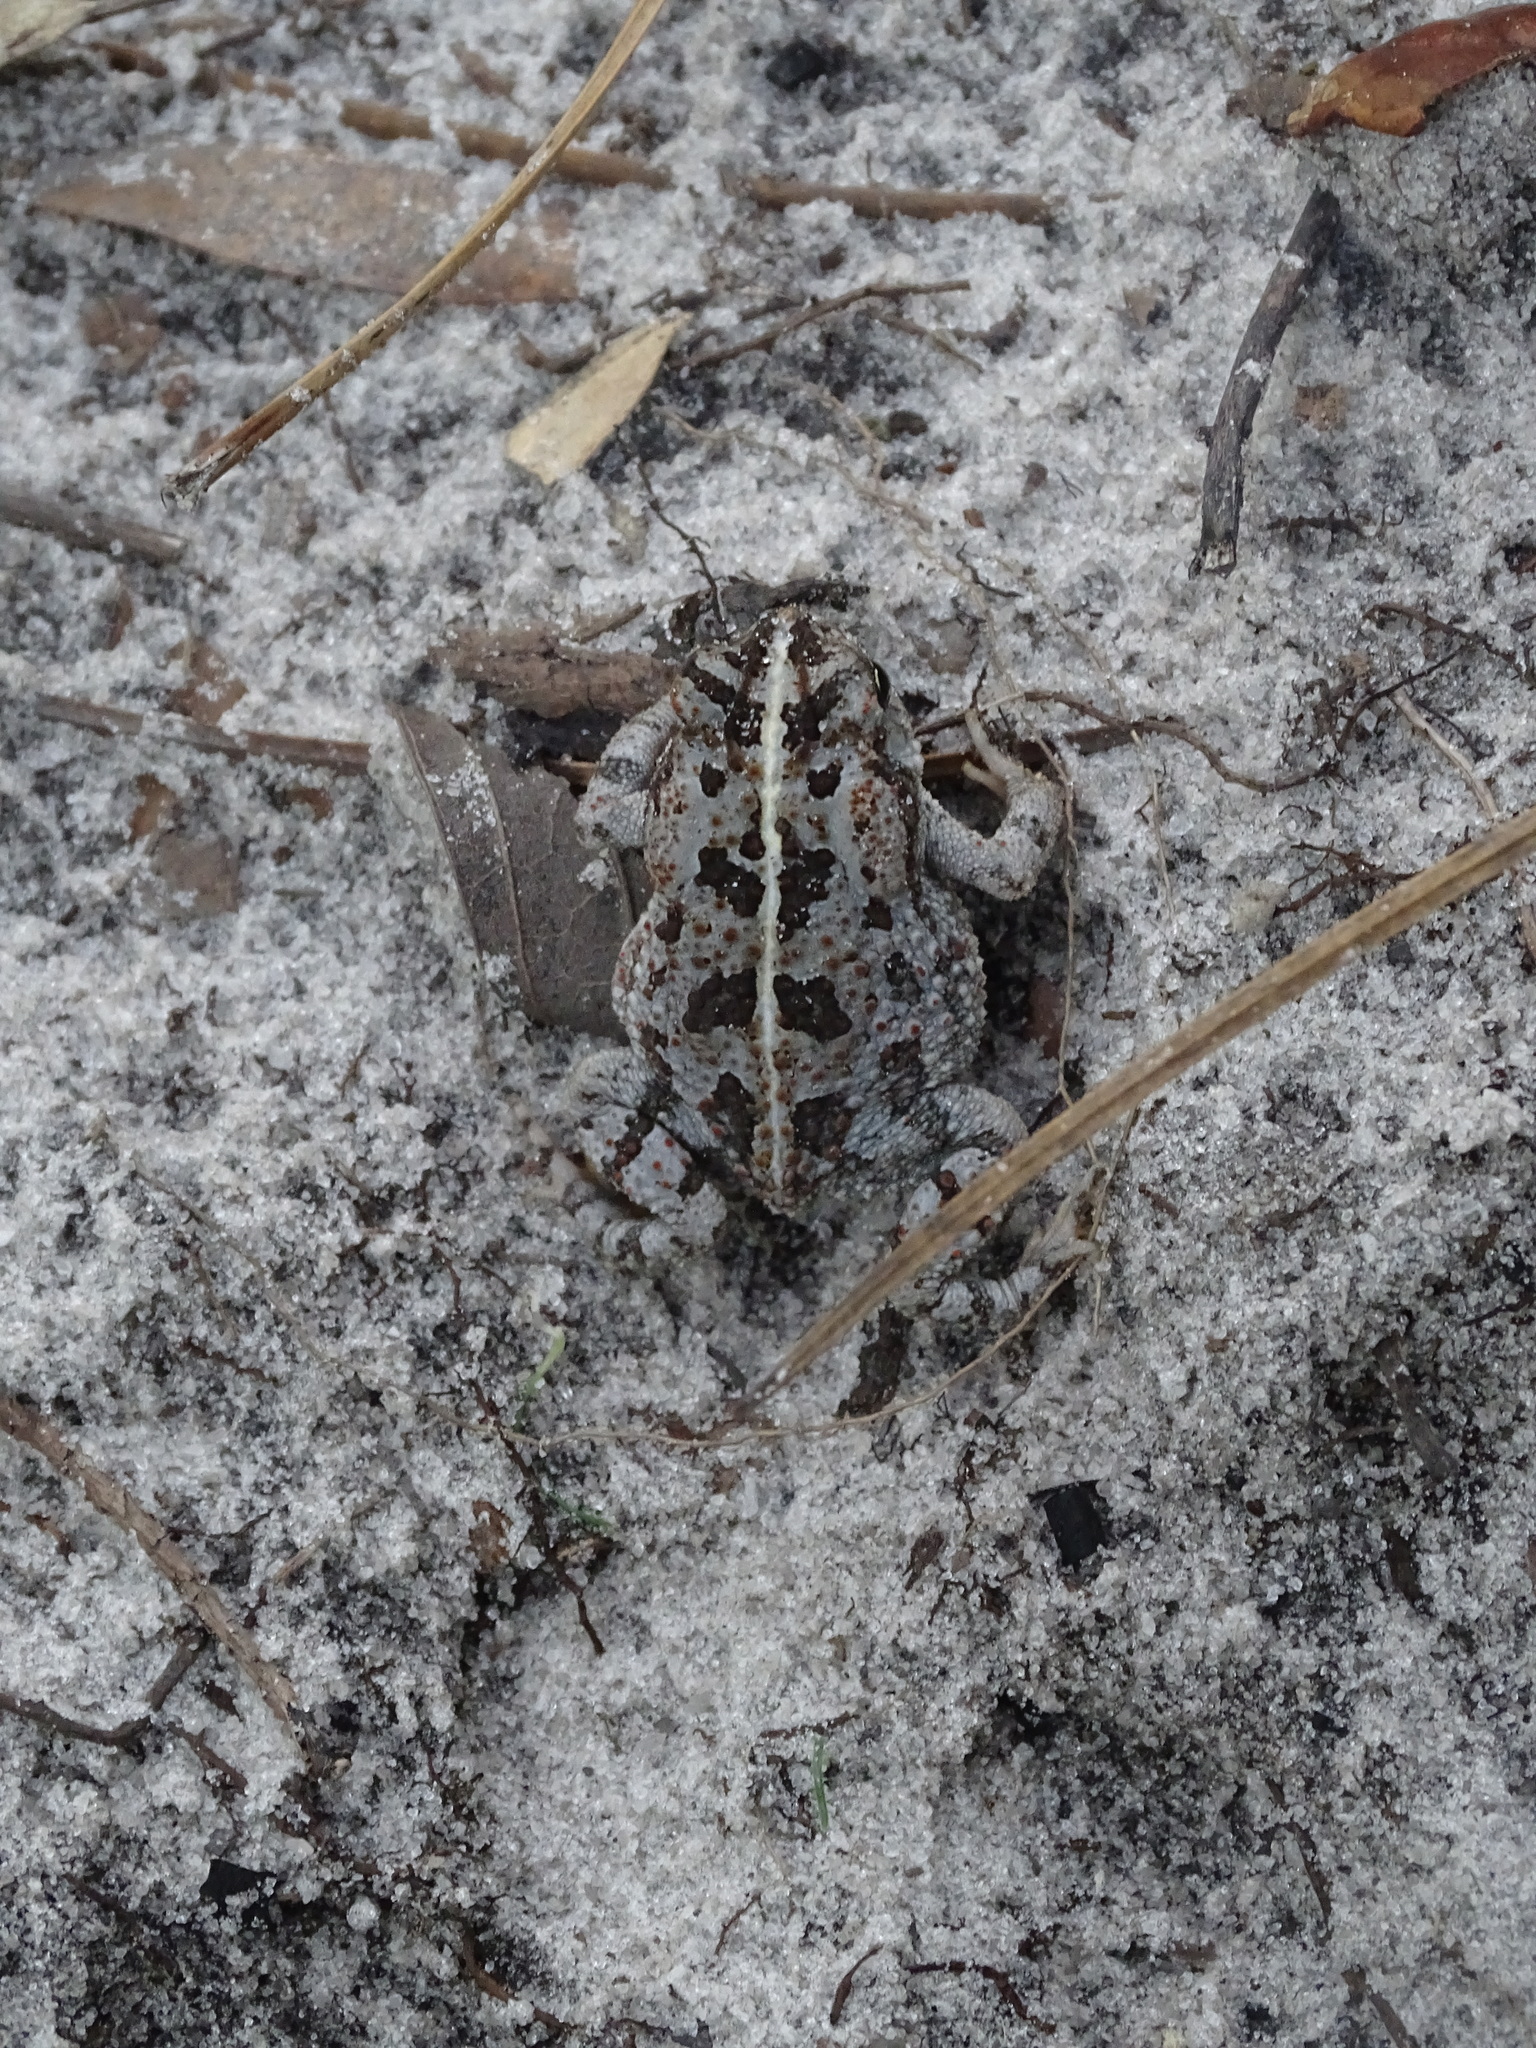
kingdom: Animalia
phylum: Chordata
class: Amphibia
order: Anura
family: Bufonidae
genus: Anaxyrus
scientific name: Anaxyrus quercicus
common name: Oak toad
